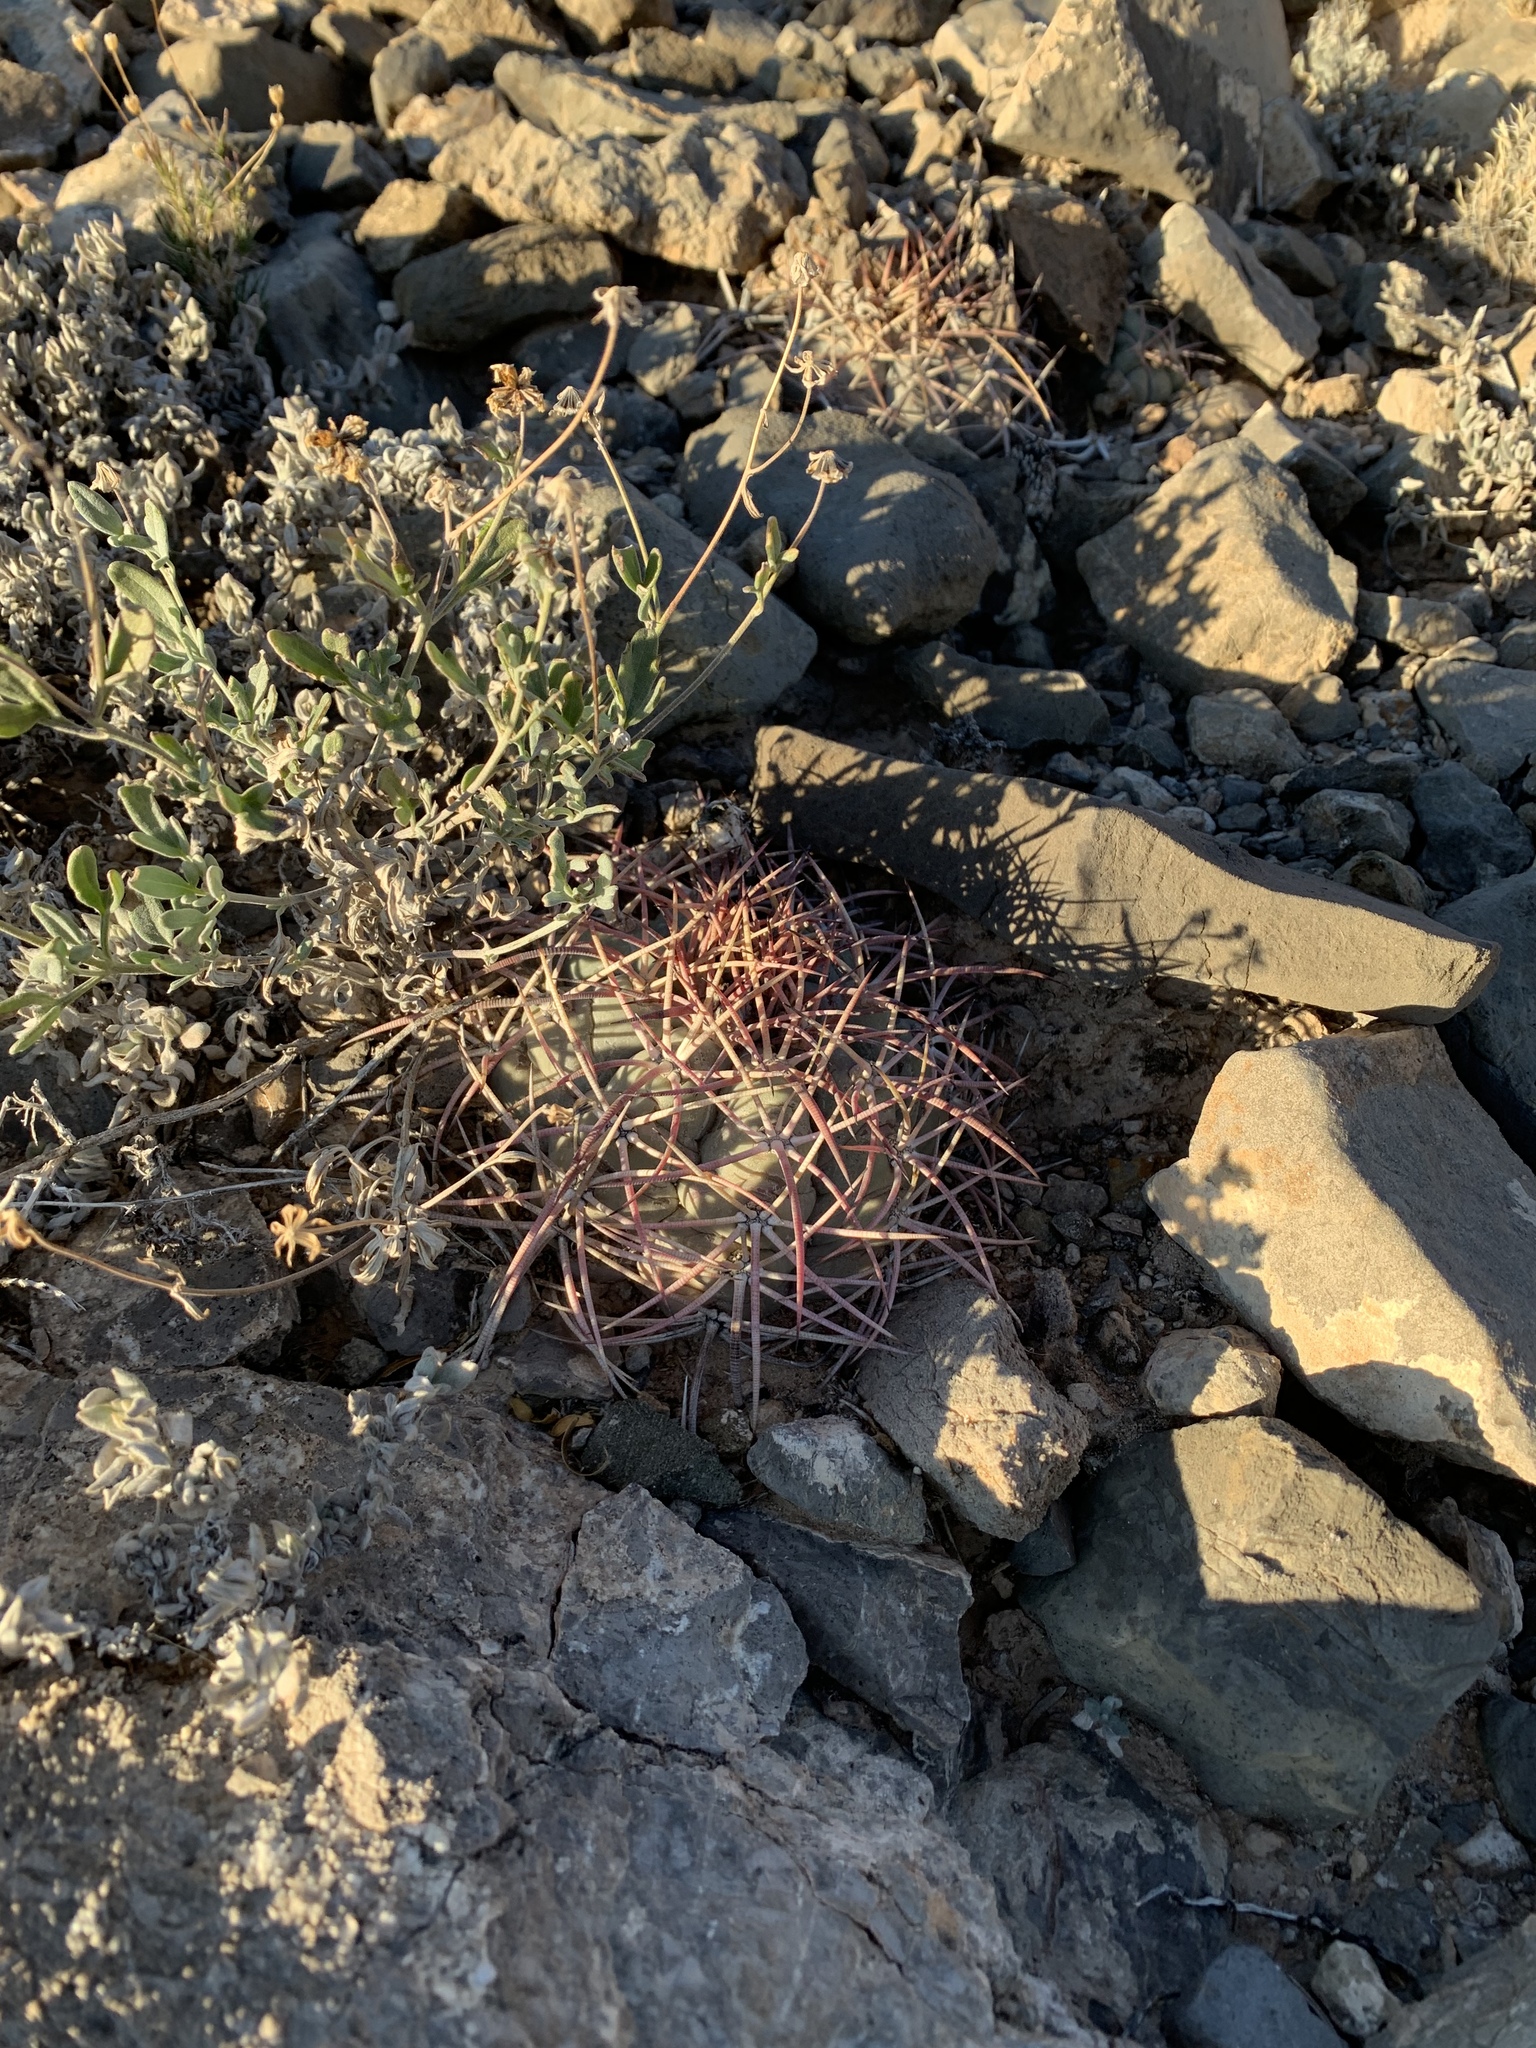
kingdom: Plantae
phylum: Tracheophyta
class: Magnoliopsida
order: Caryophyllales
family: Cactaceae
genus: Echinocactus
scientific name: Echinocactus horizonthalonius
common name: Devilshead
